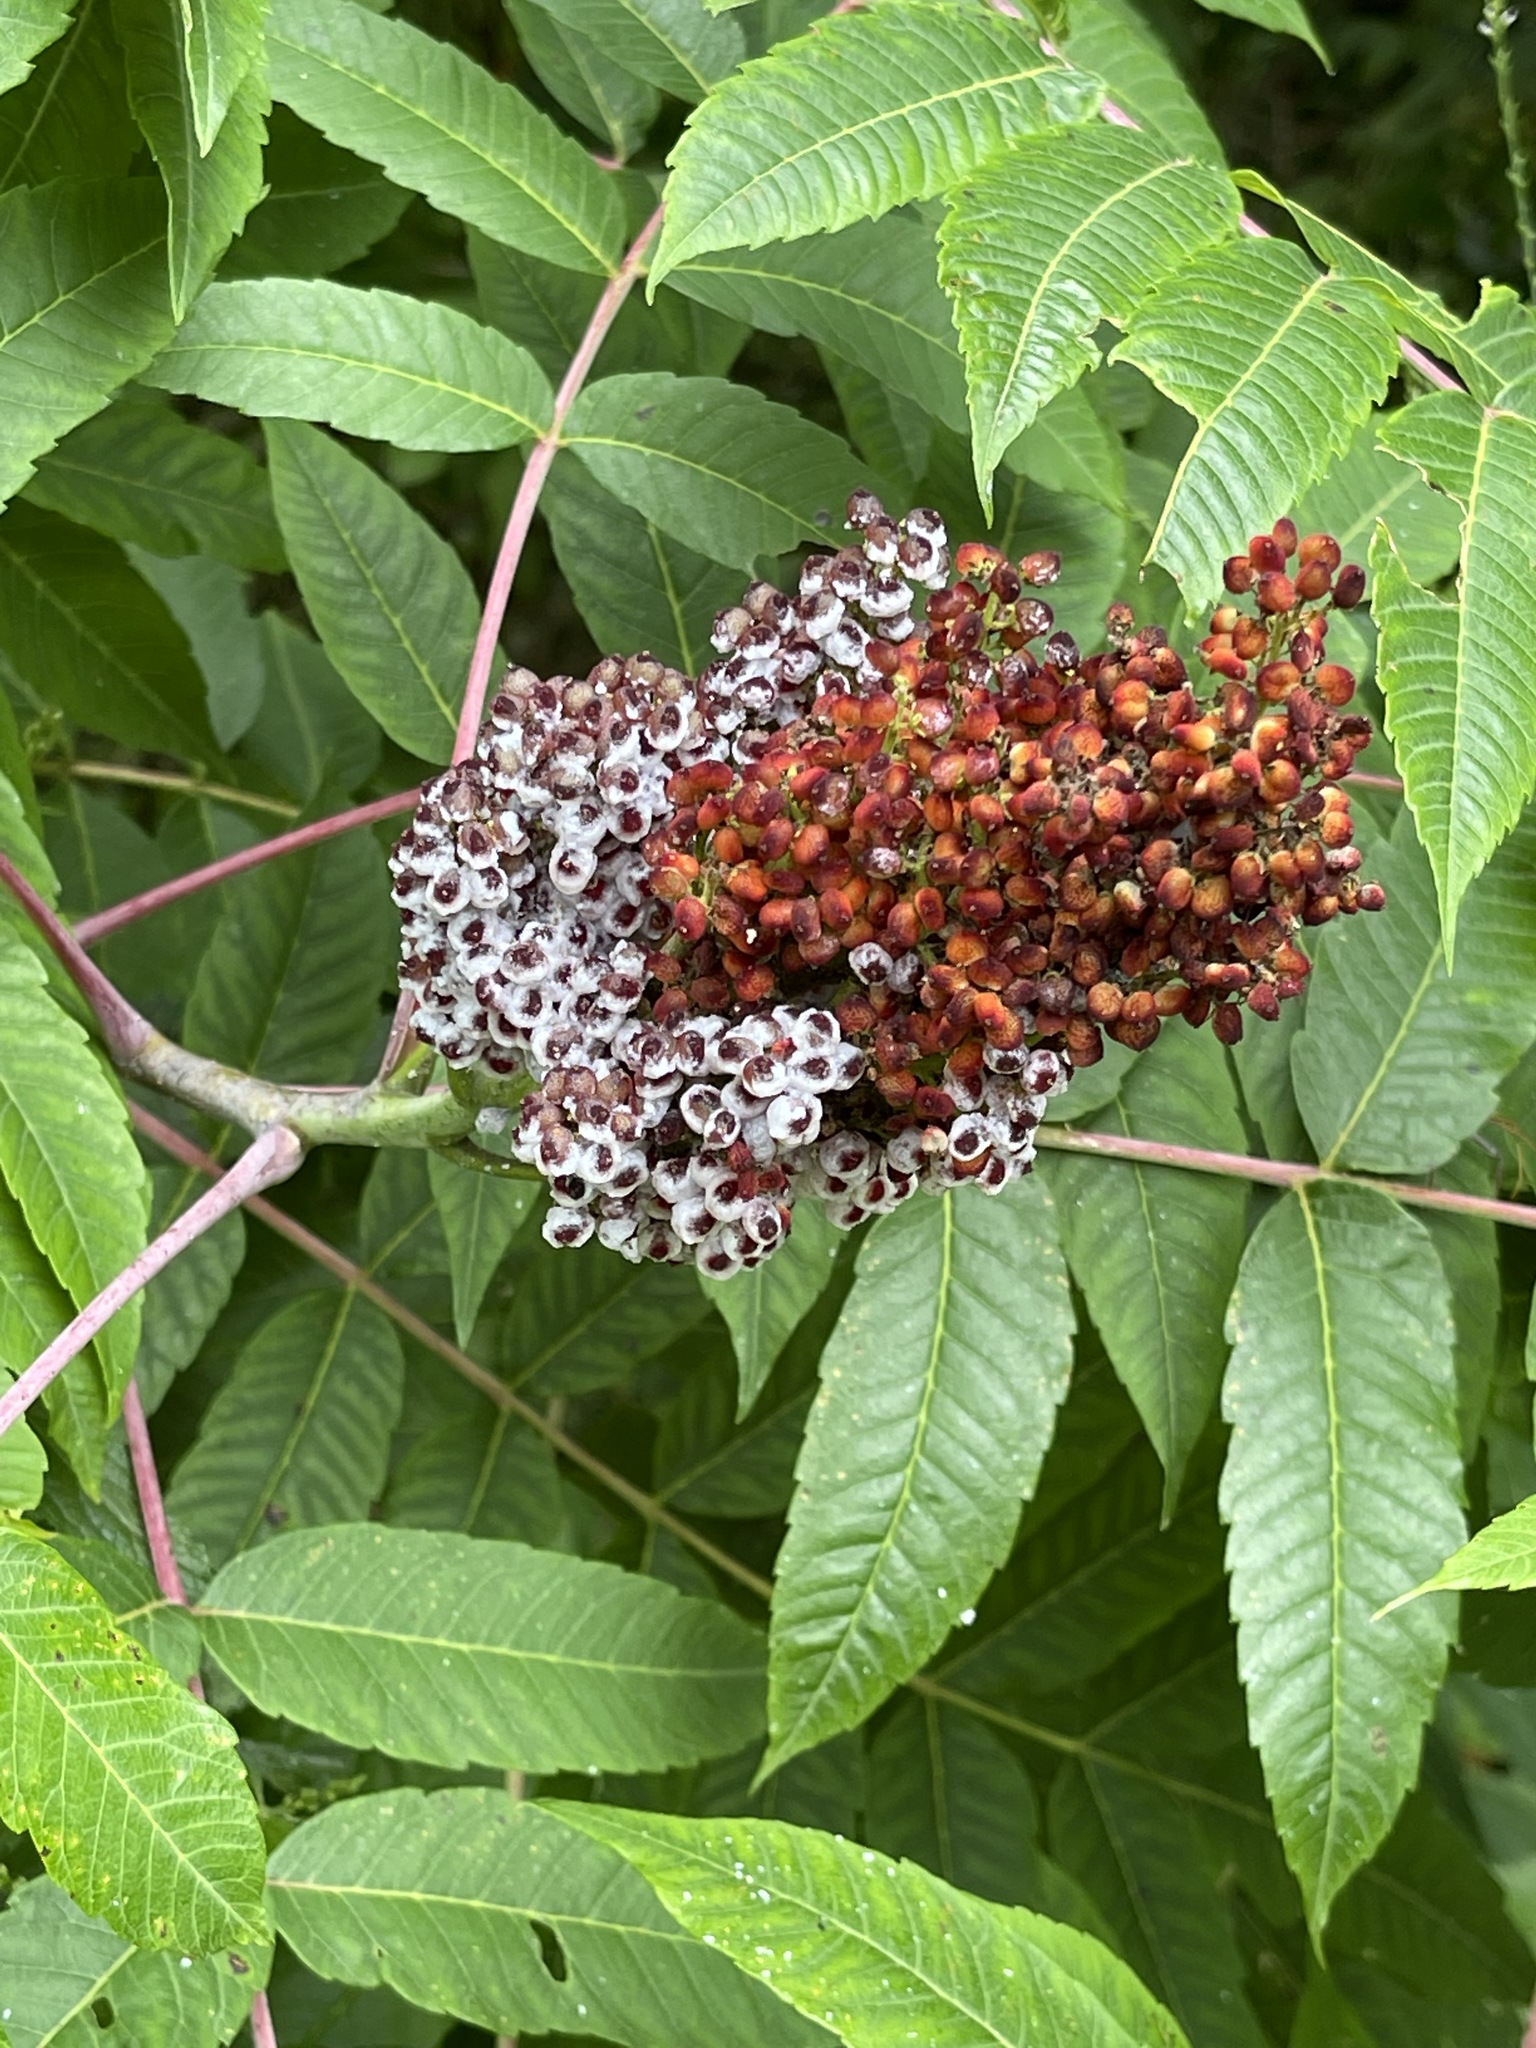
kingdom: Plantae
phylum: Tracheophyta
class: Magnoliopsida
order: Sapindales
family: Anacardiaceae
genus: Rhus
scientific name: Rhus glabra
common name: Scarlet sumac
